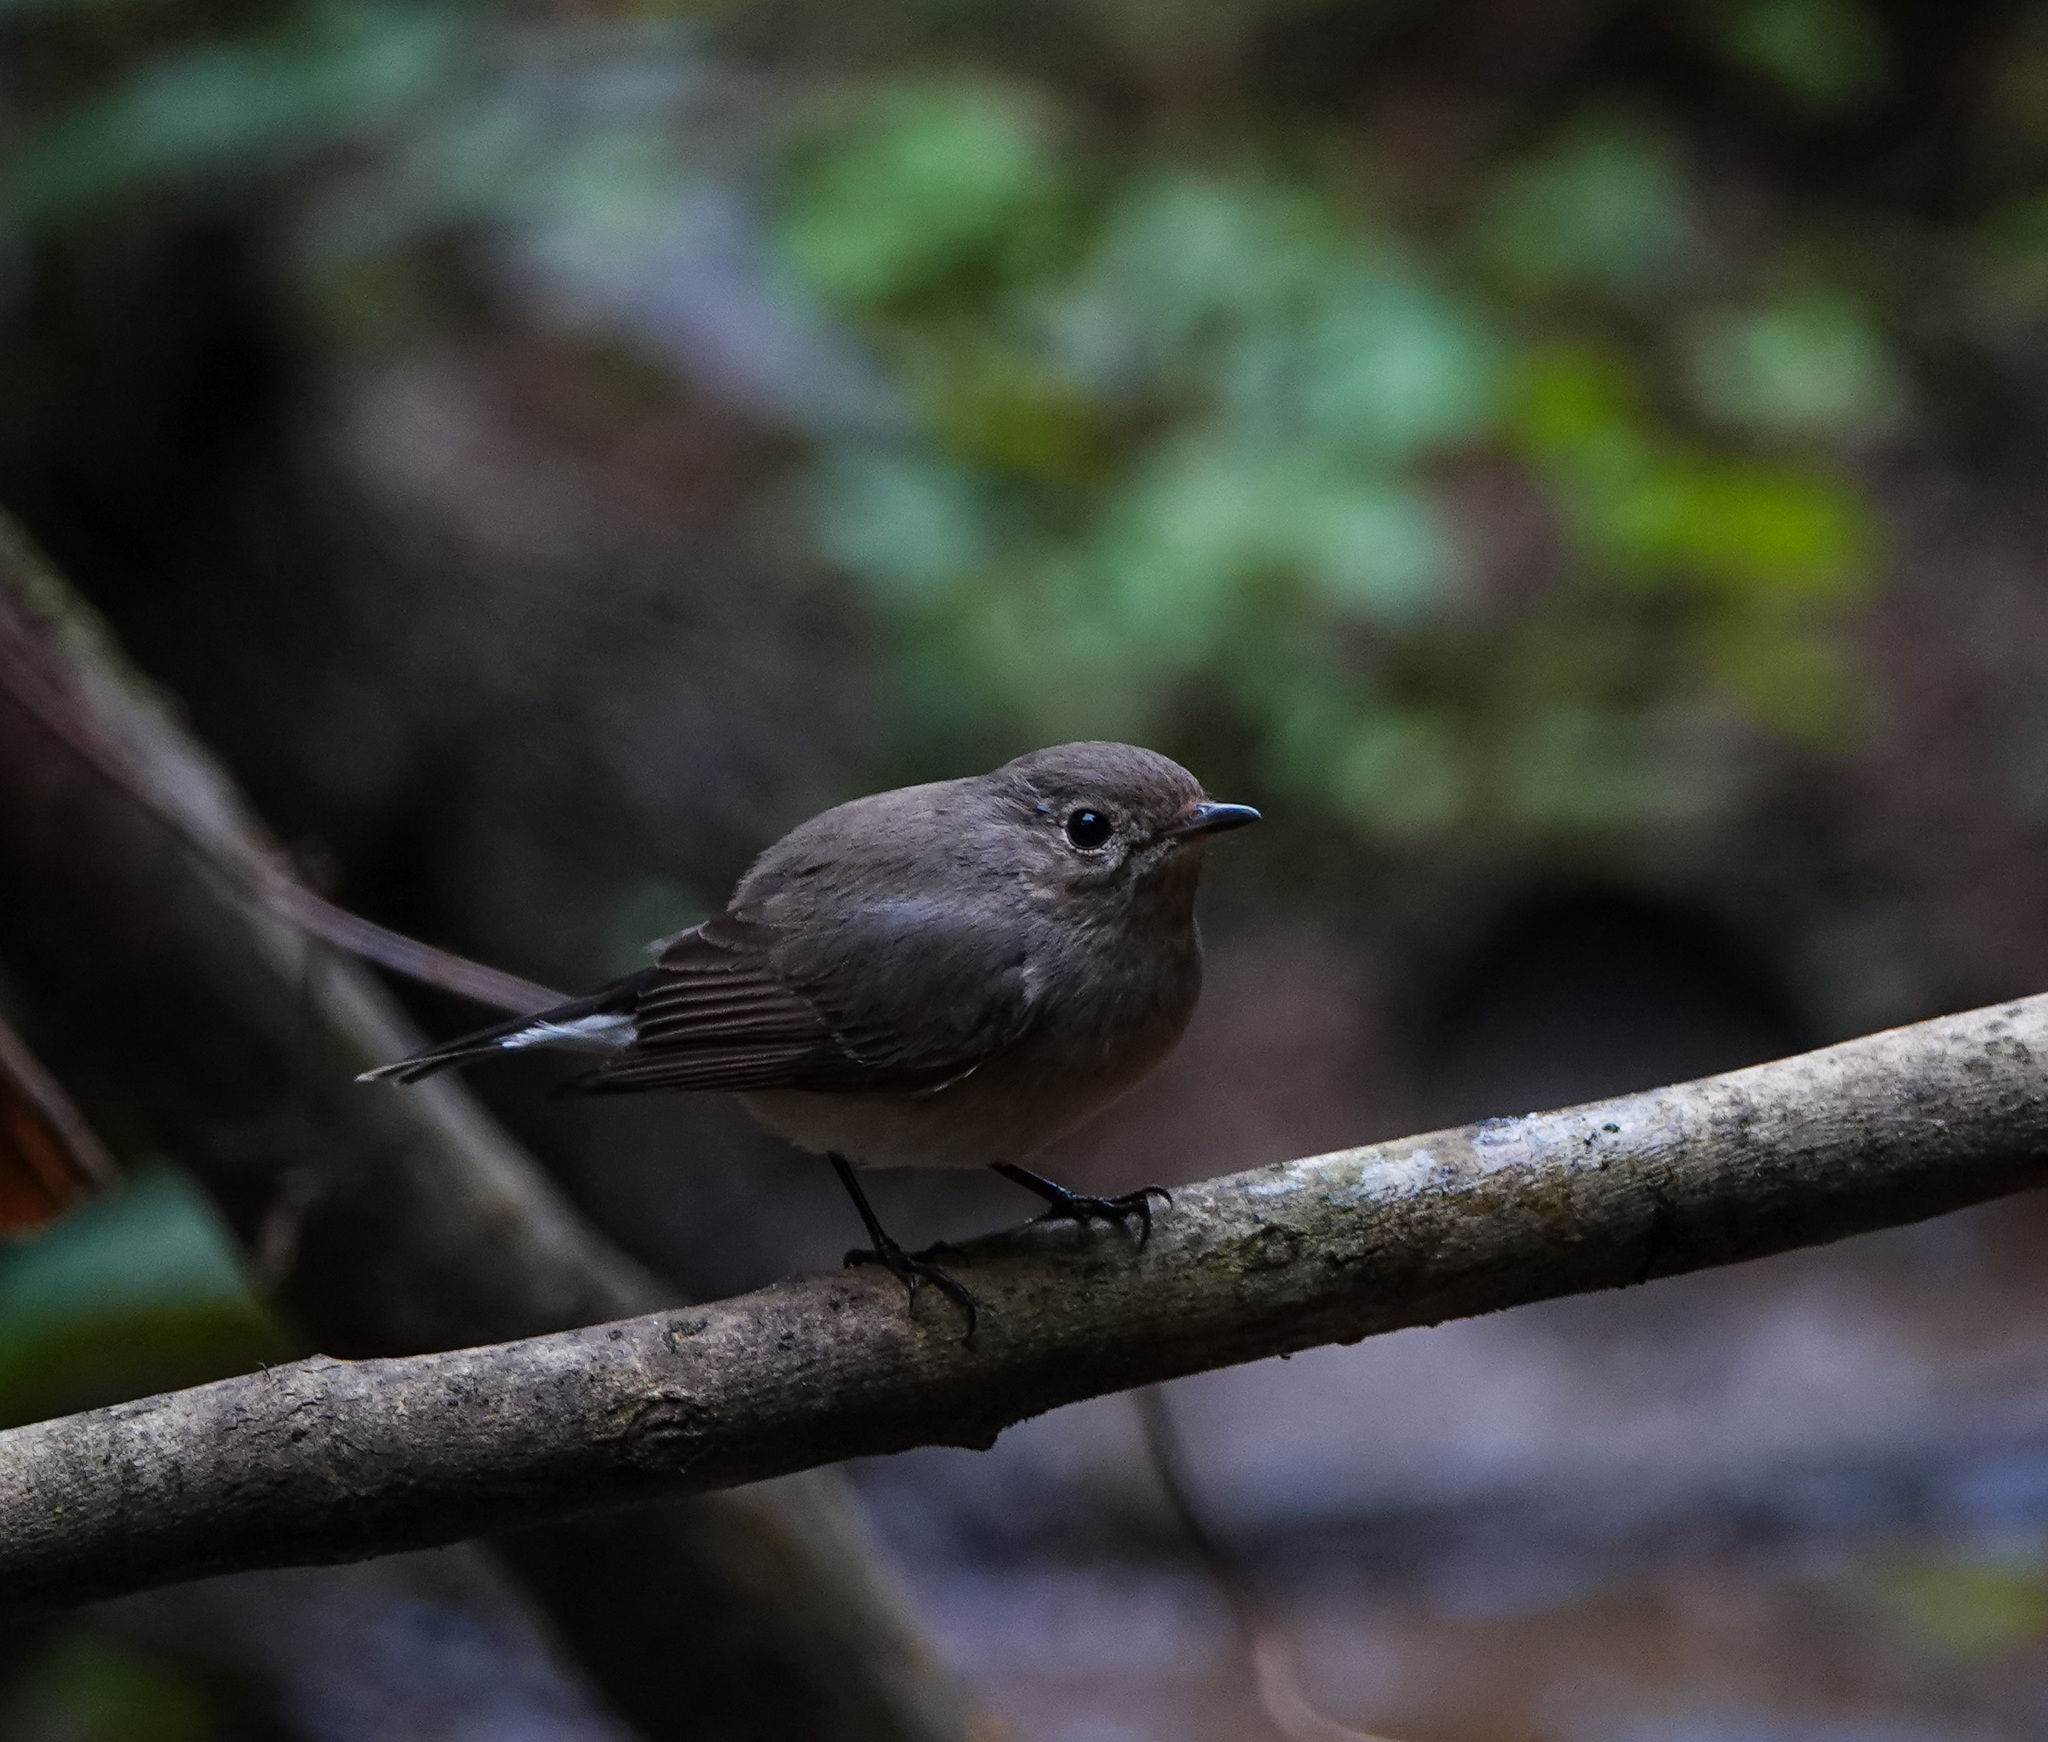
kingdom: Animalia
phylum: Chordata
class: Aves
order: Passeriformes
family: Muscicapidae
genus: Ficedula
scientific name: Ficedula albicilla
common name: Taiga flycatcher
